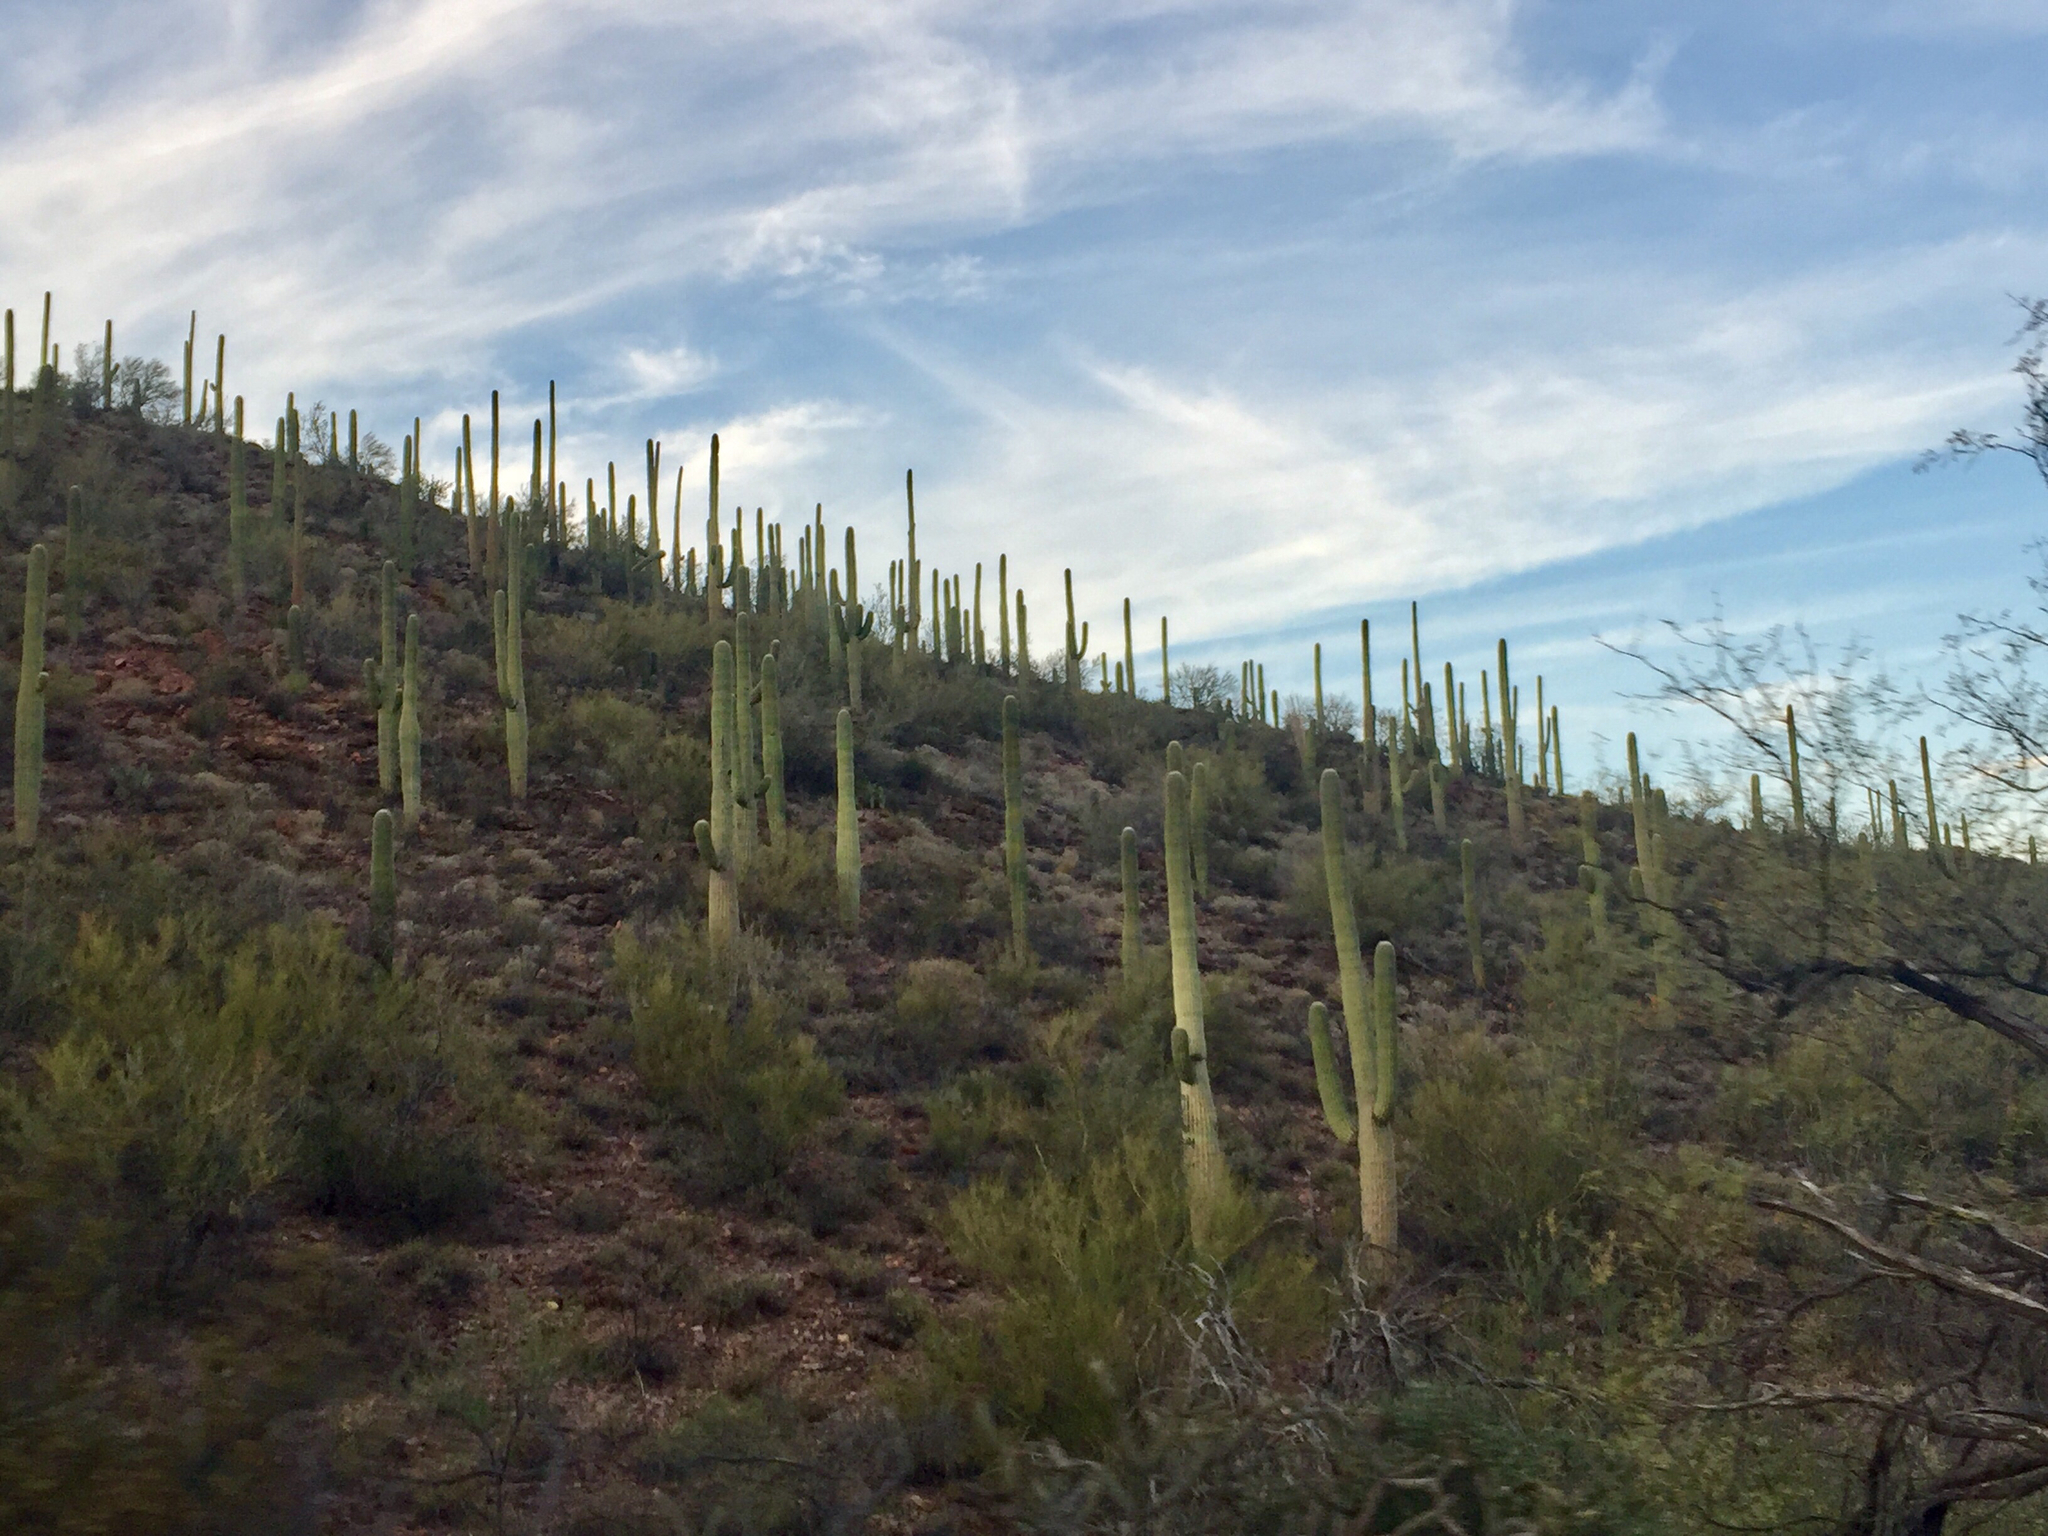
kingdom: Plantae
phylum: Tracheophyta
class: Magnoliopsida
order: Caryophyllales
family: Cactaceae
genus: Carnegiea
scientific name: Carnegiea gigantea
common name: Saguaro
